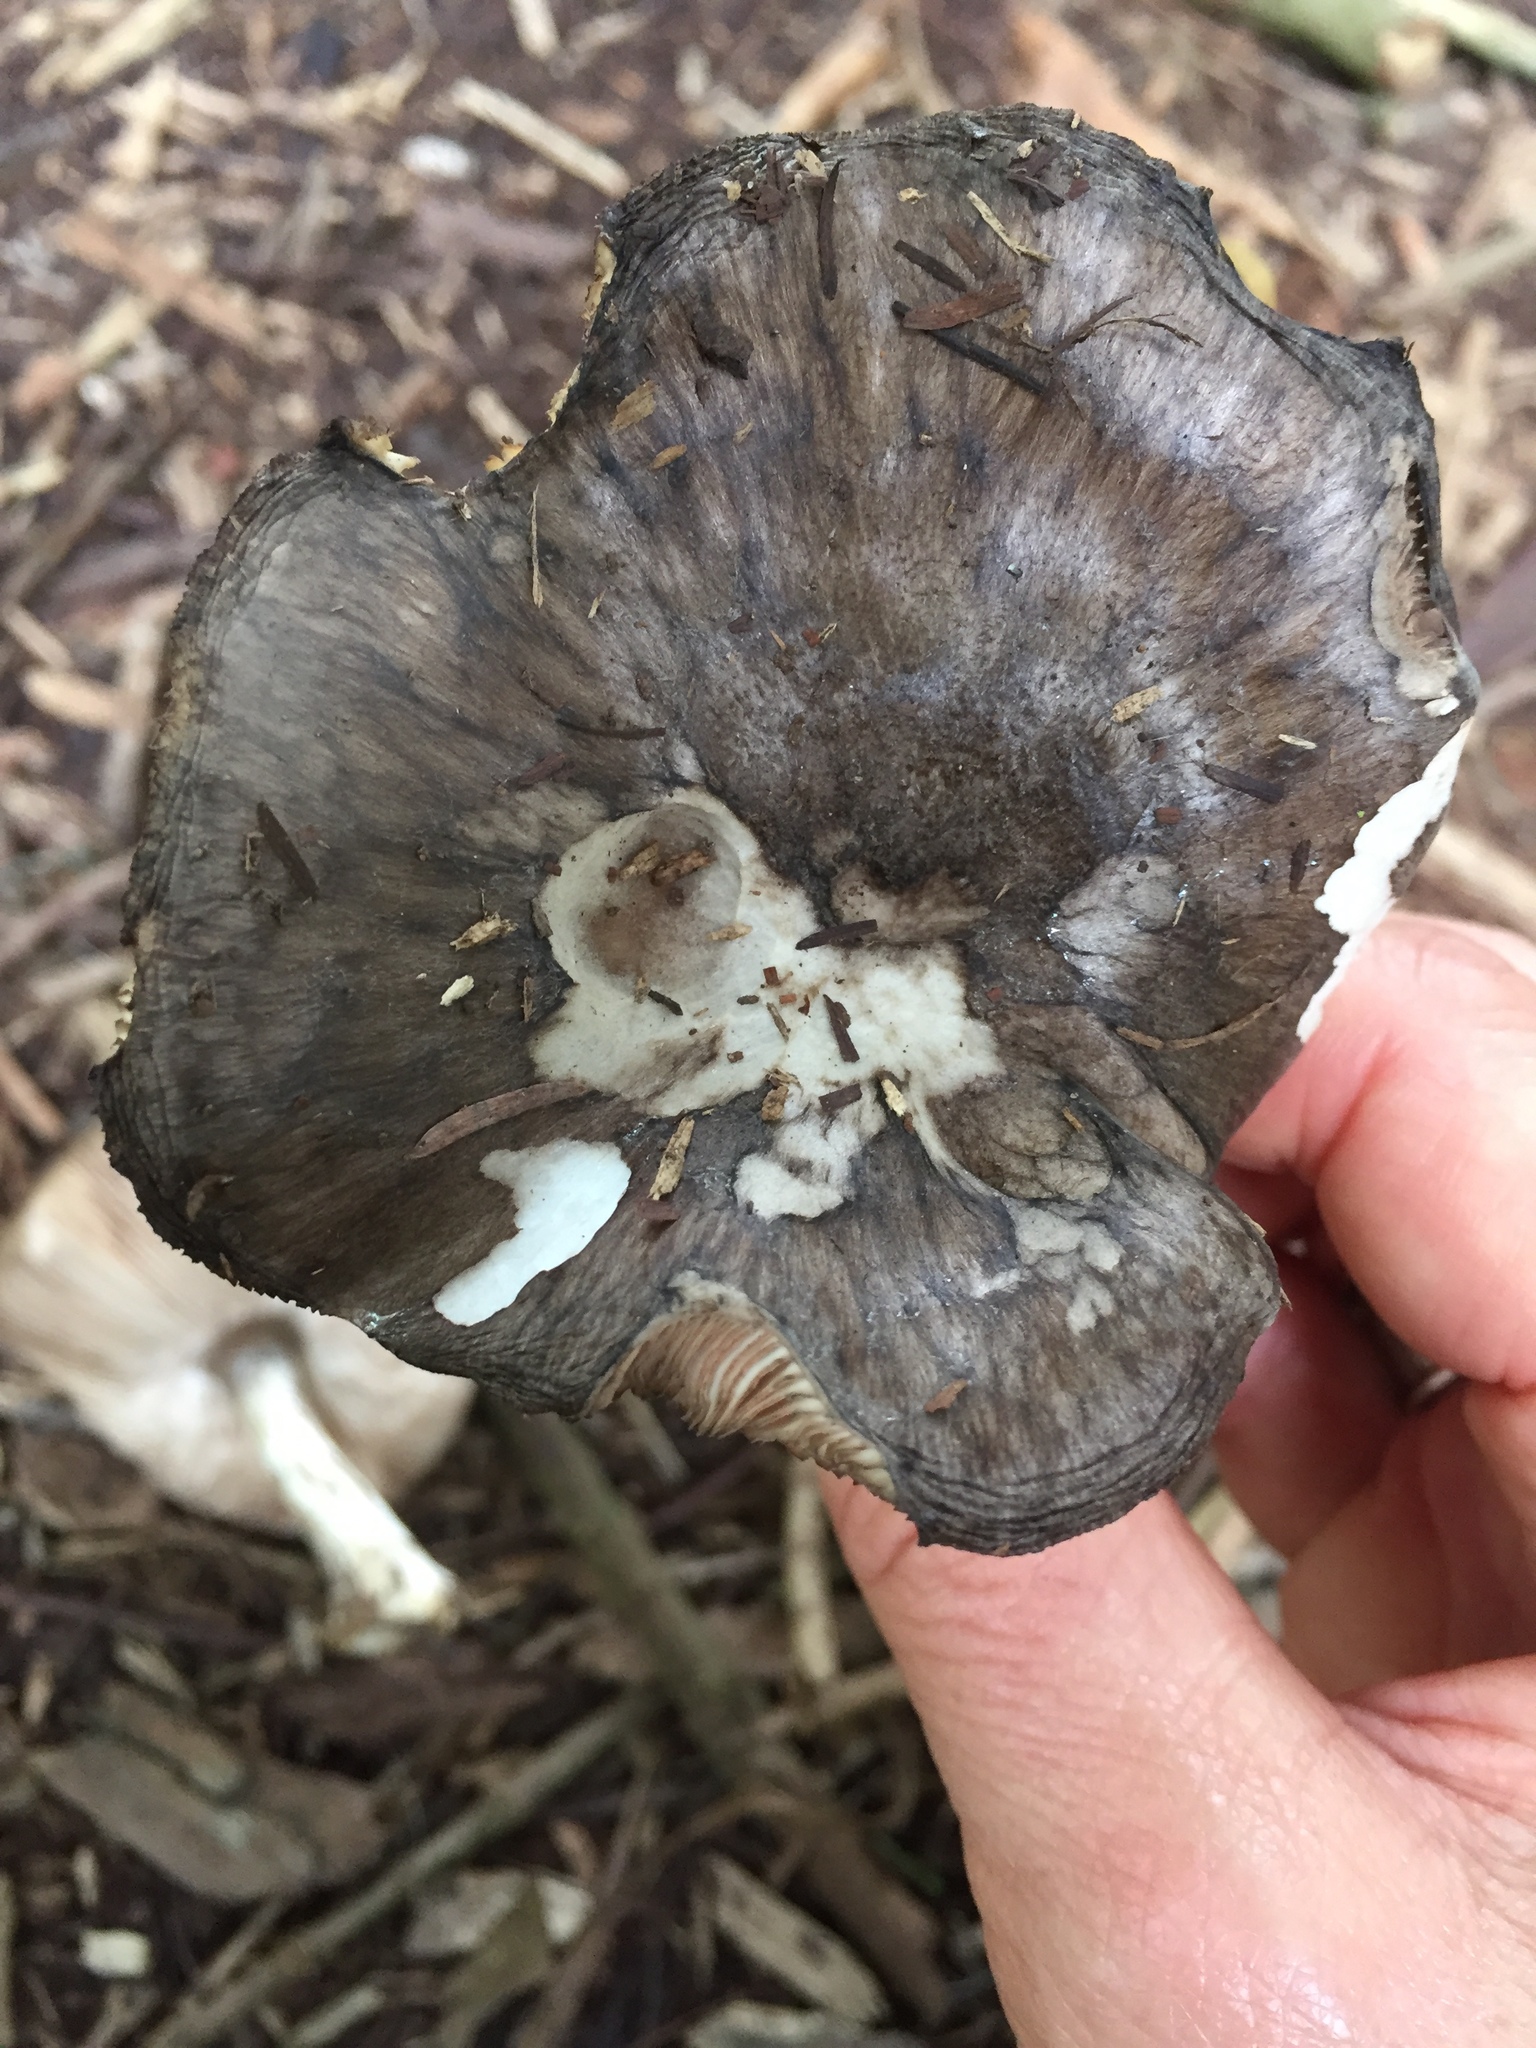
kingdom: Fungi
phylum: Basidiomycota
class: Agaricomycetes
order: Agaricales
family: Pluteaceae
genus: Pluteus
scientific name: Pluteus atromarginatus
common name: Blackedged shield
